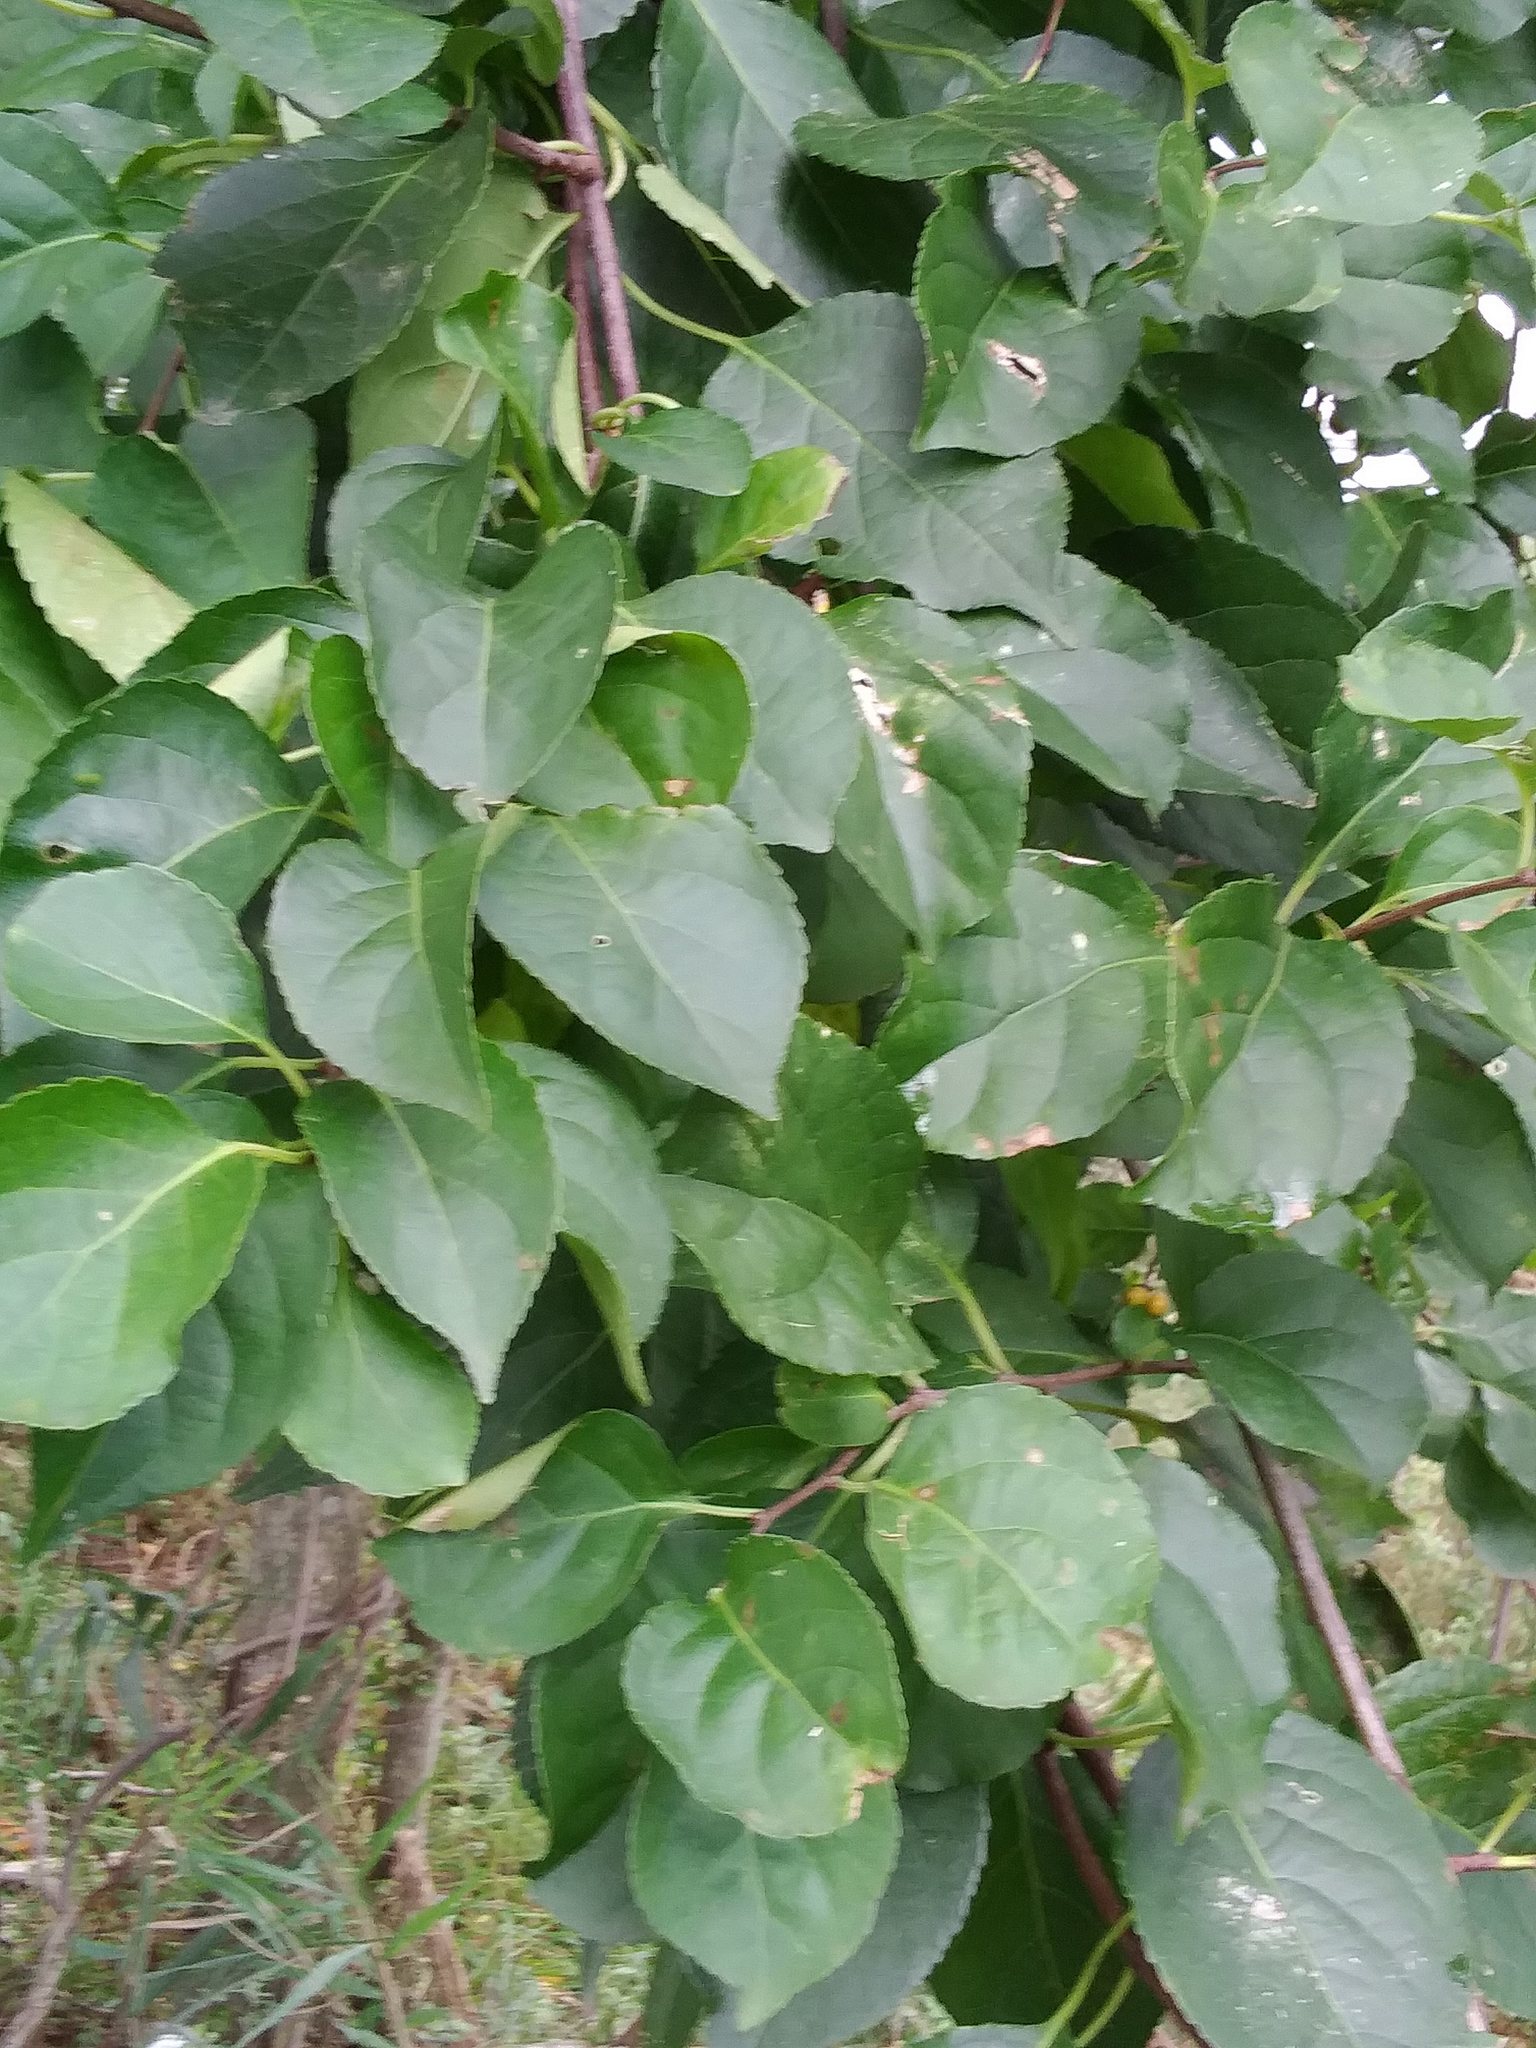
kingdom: Plantae
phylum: Tracheophyta
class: Magnoliopsida
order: Celastrales
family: Celastraceae
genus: Celastrus
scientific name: Celastrus orbiculatus
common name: Oriental bittersweet
